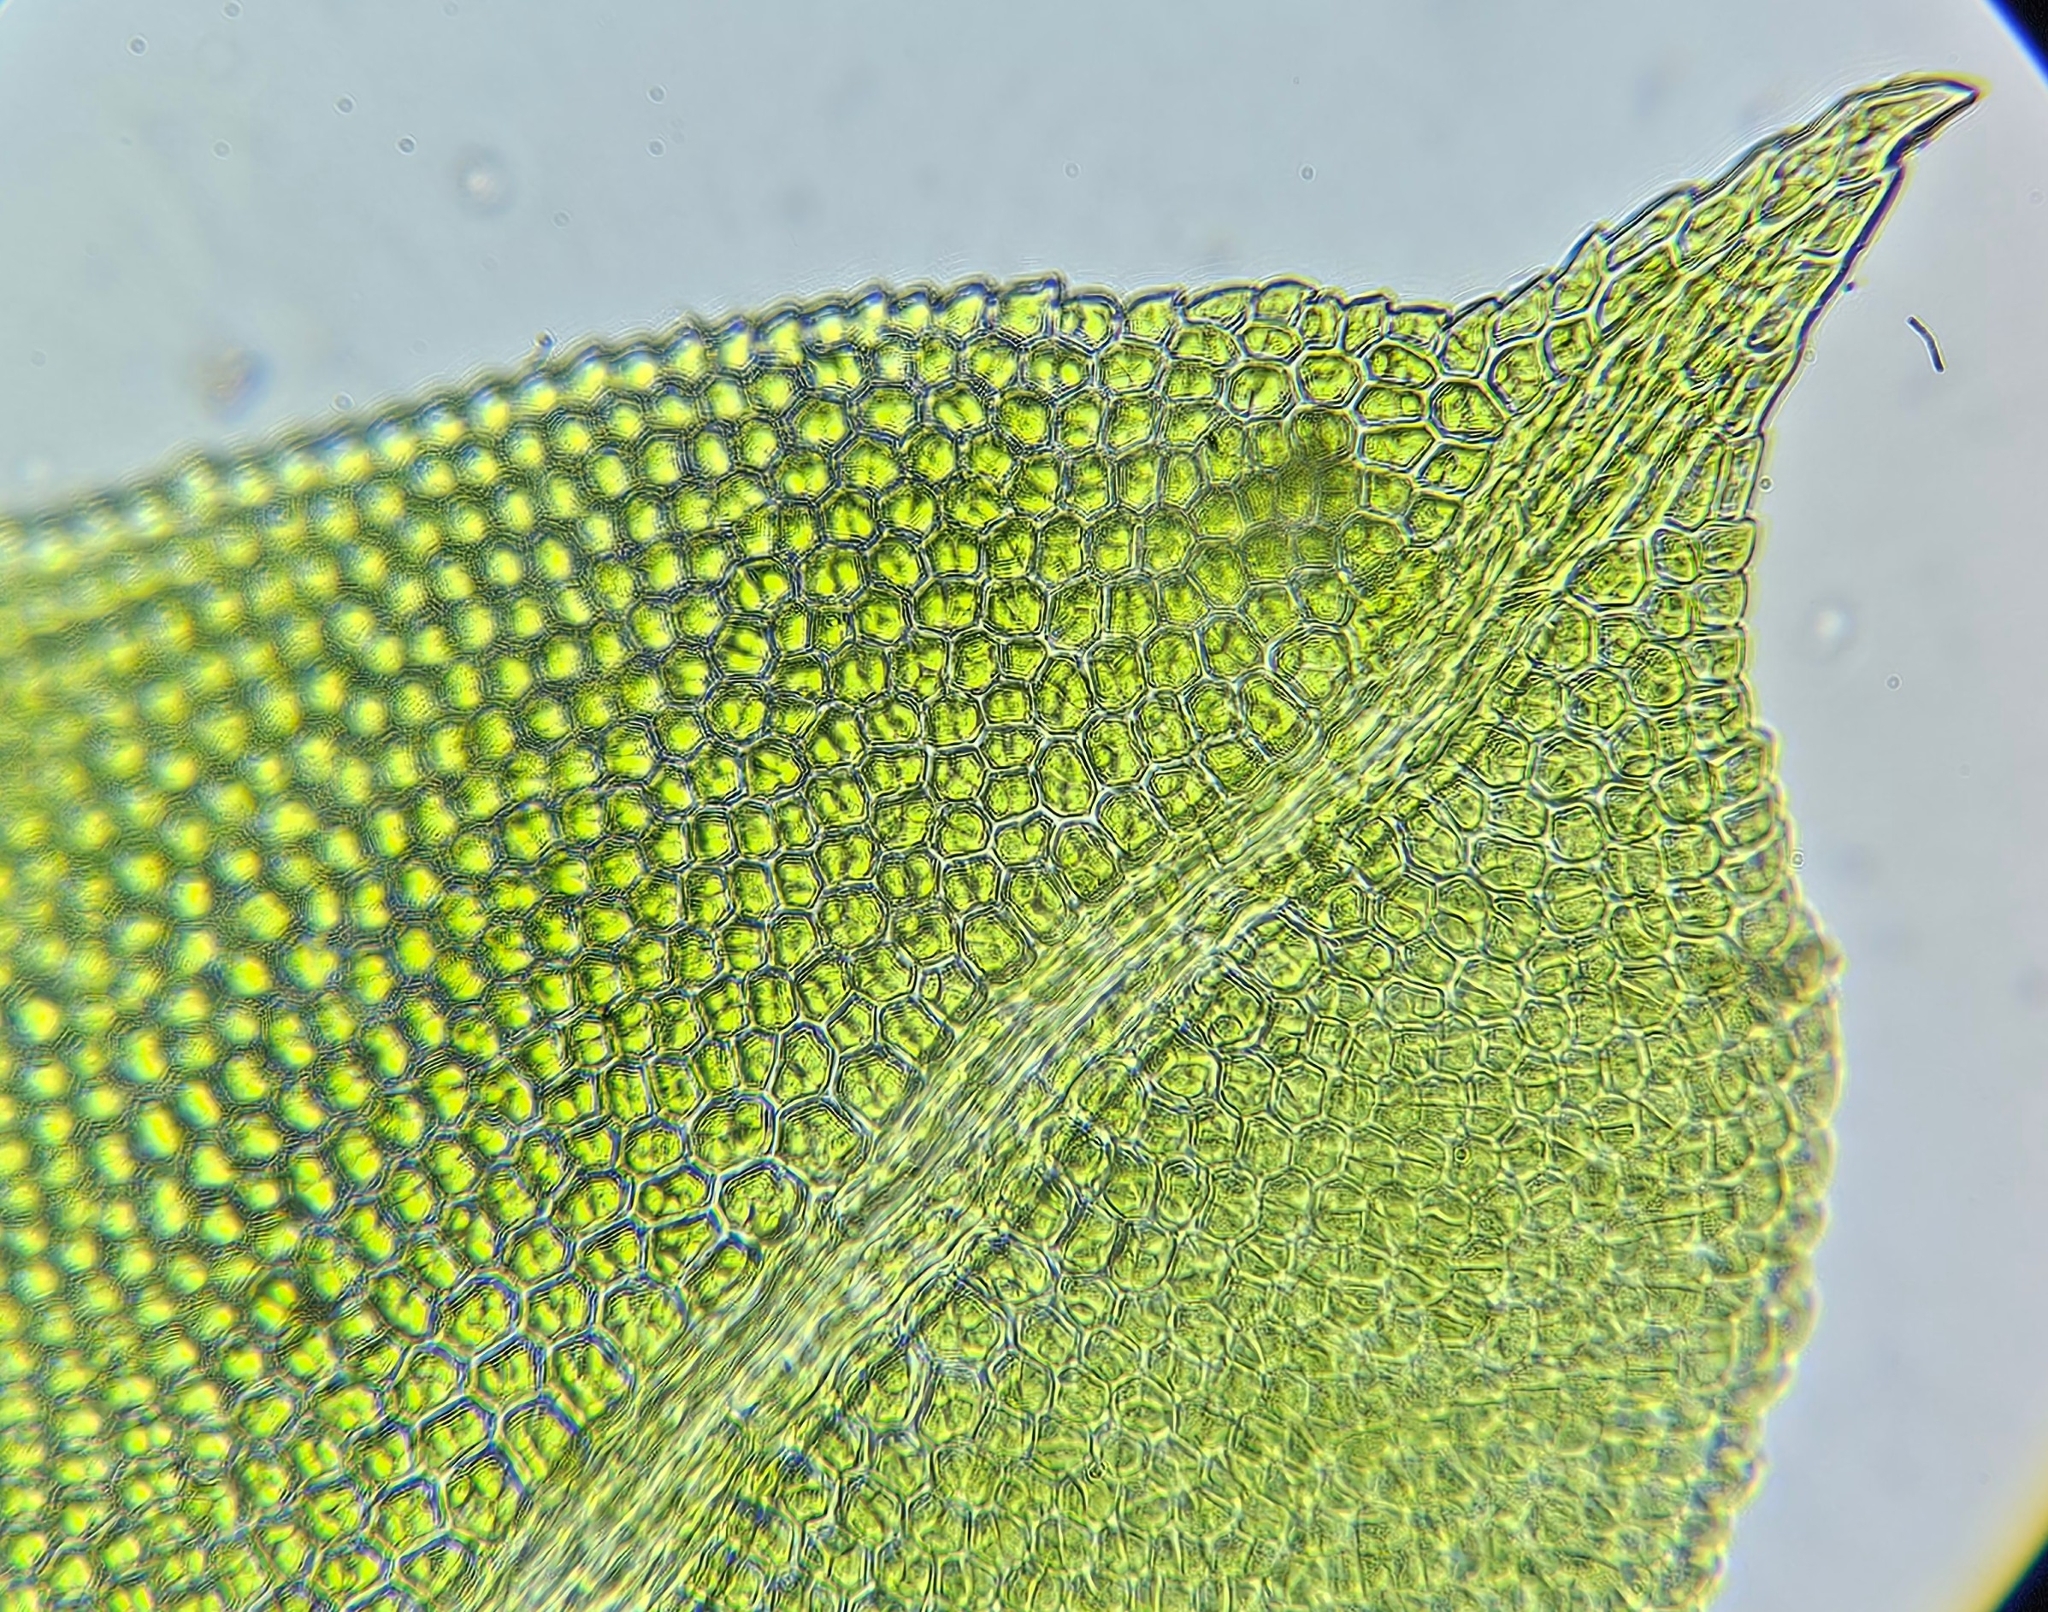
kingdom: Plantae
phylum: Bryophyta
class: Bryopsida
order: Dicranales
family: Fissidentaceae
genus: Fissidens
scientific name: Fissidens taxifolius
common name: Yew-leaved pocket moss
